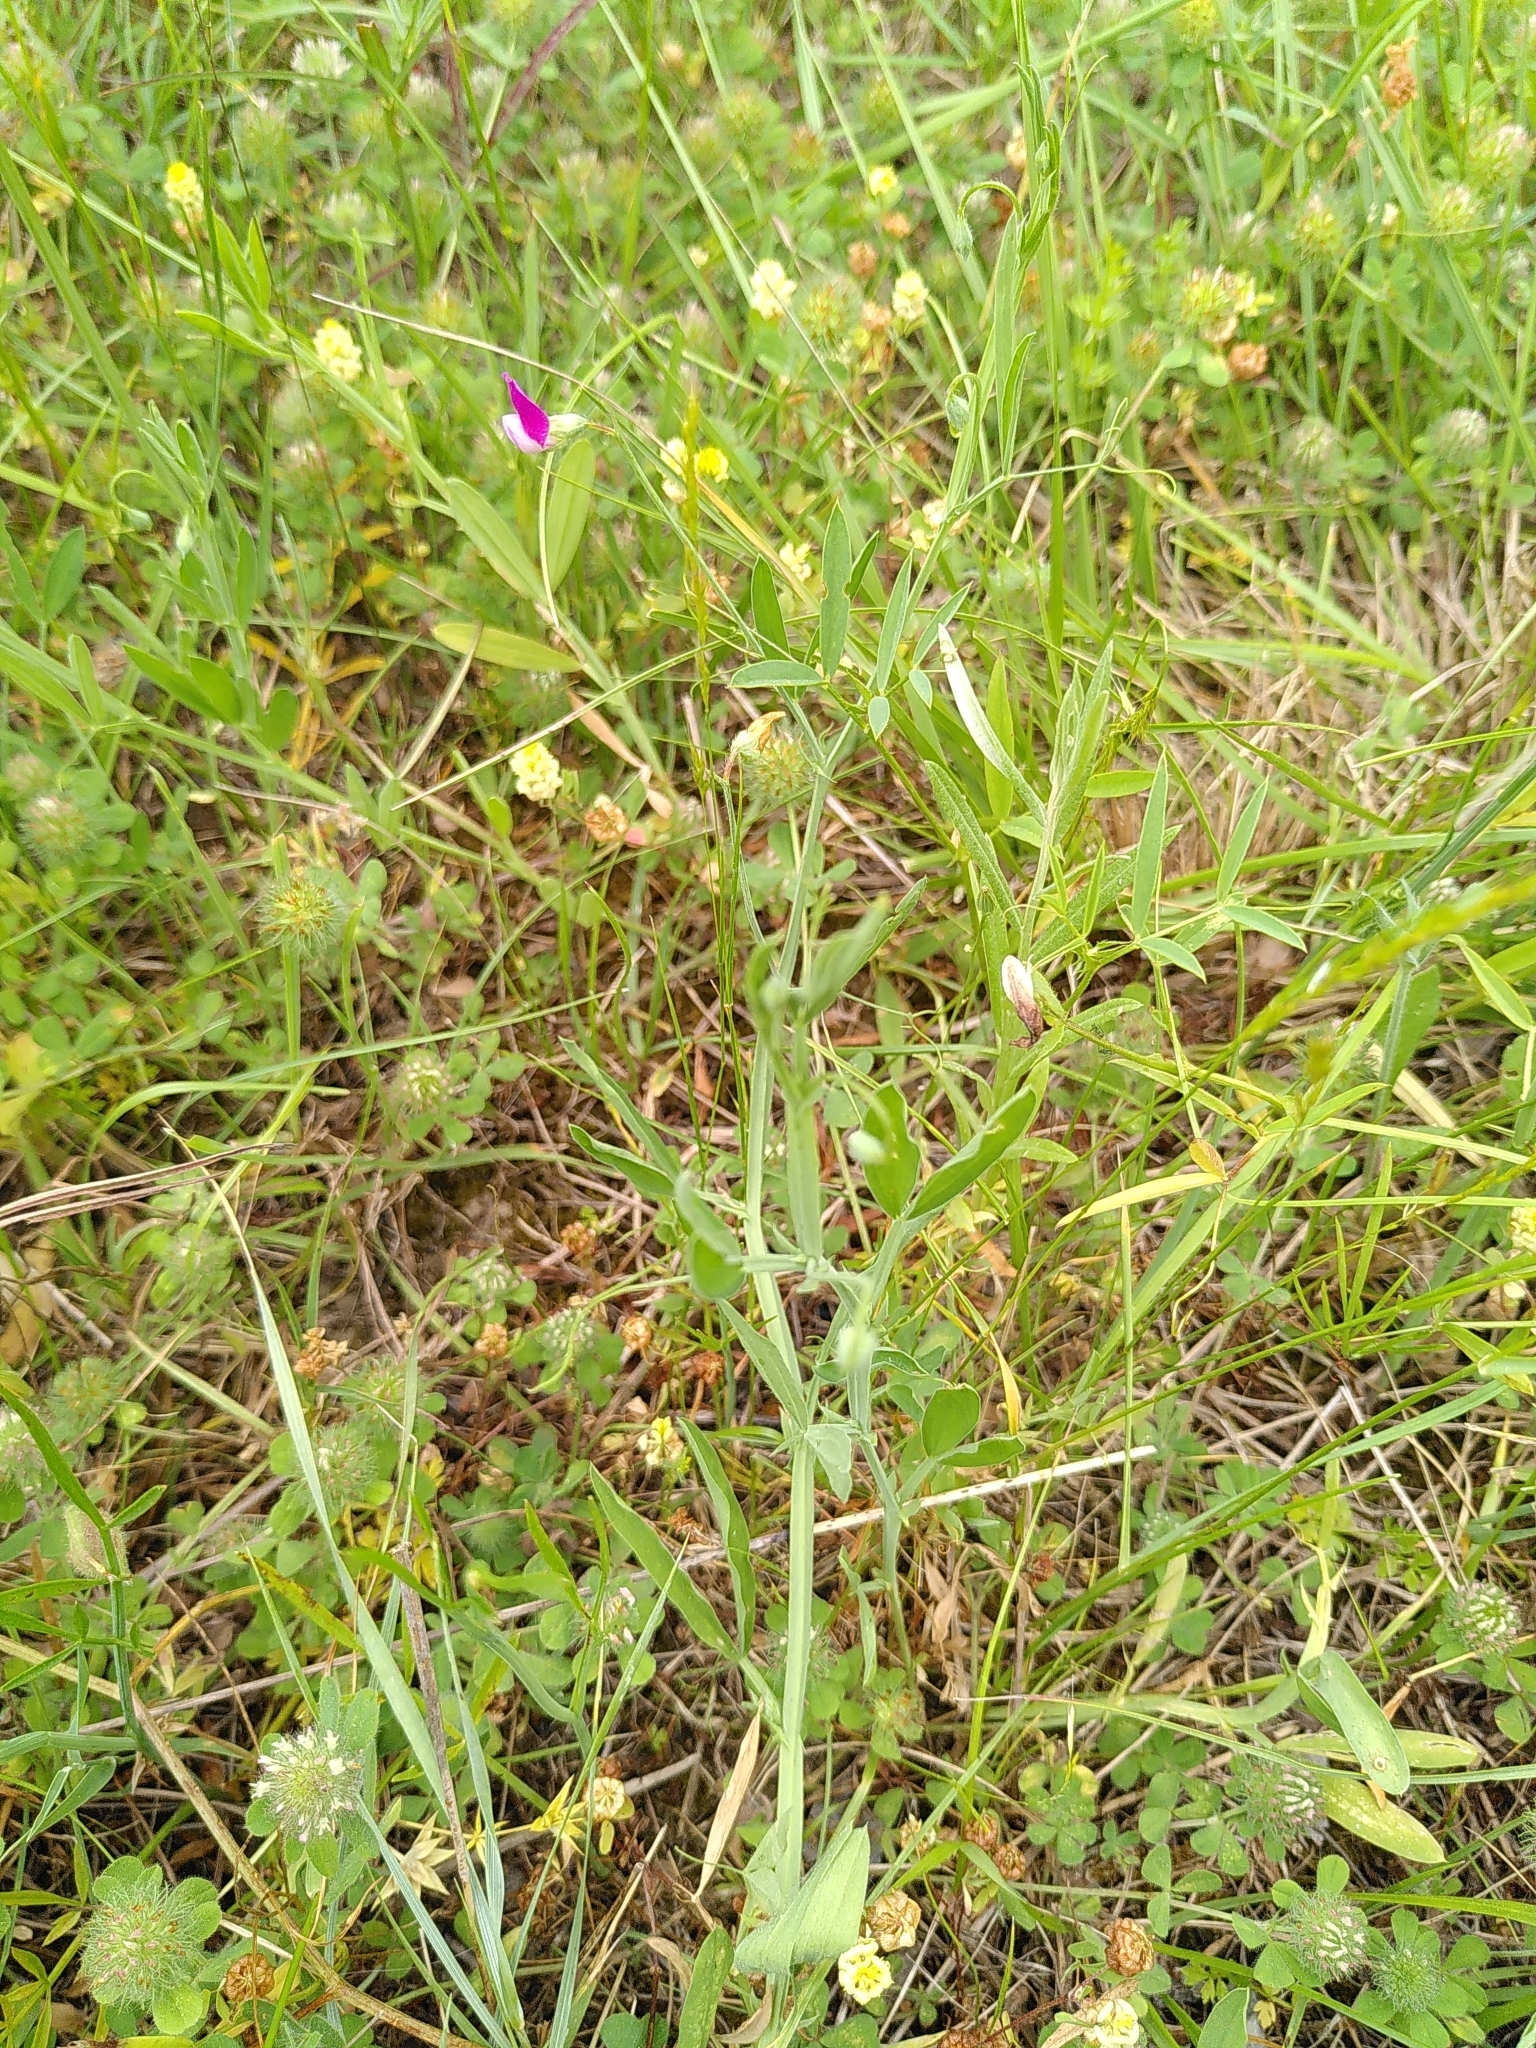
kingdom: Plantae
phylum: Tracheophyta
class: Magnoliopsida
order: Fabales
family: Fabaceae
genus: Lathyrus
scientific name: Lathyrus hirsutus
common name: Hairy vetchling
